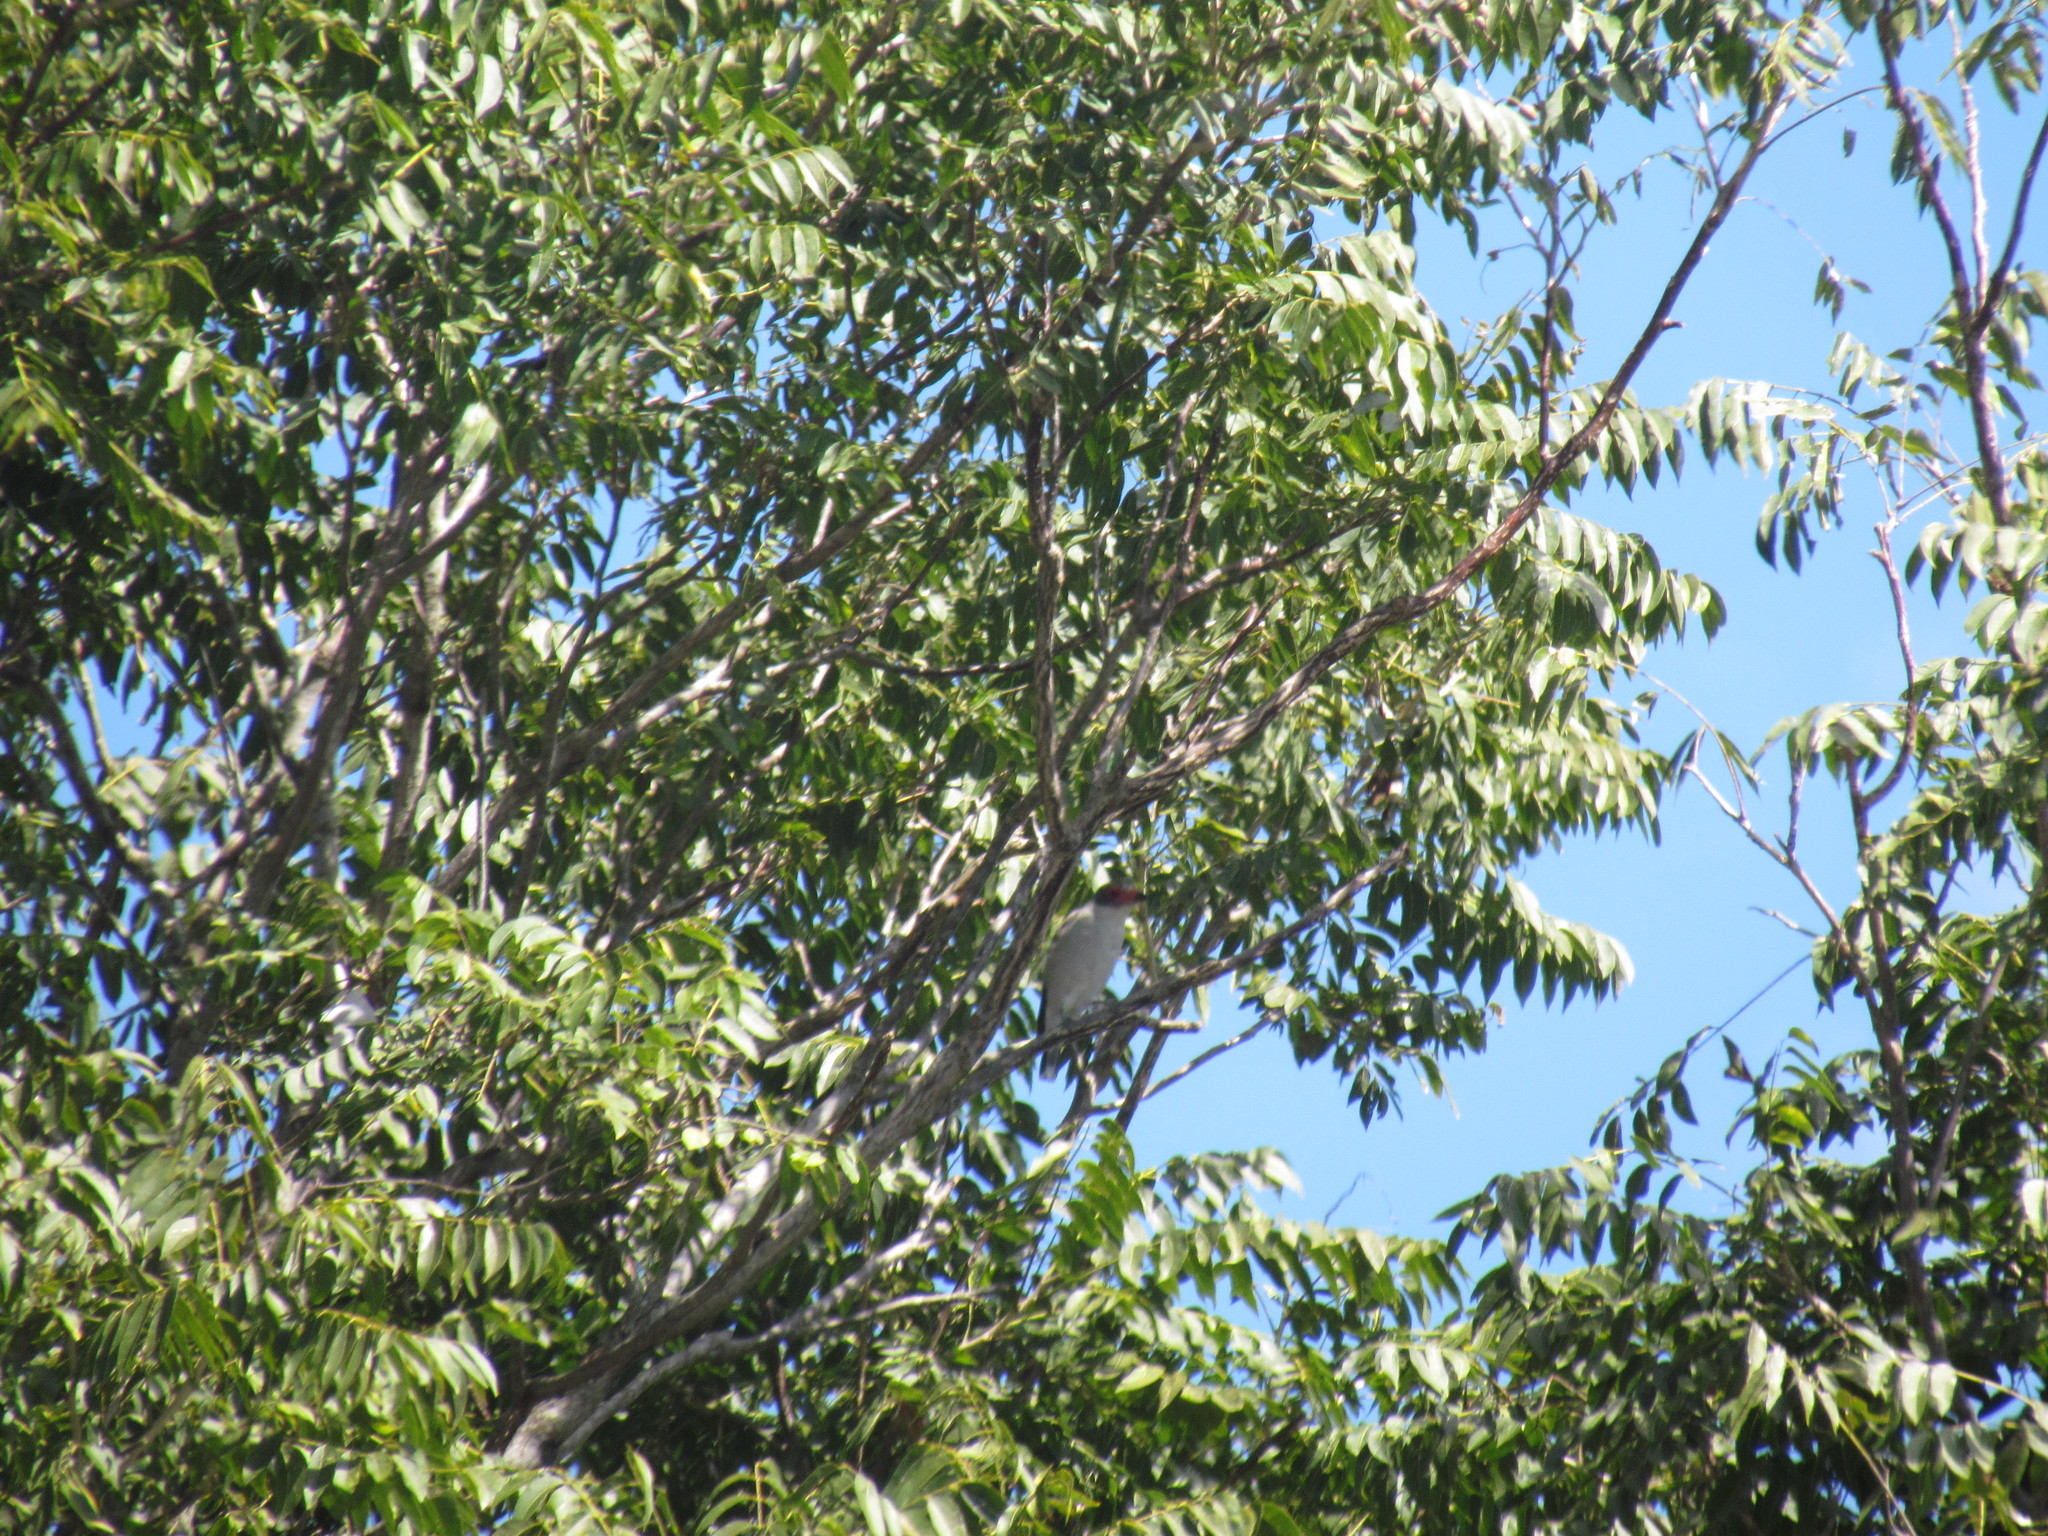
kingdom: Animalia
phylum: Chordata
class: Aves
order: Passeriformes
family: Cotingidae
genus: Tityra
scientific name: Tityra semifasciata
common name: Masked tityra
